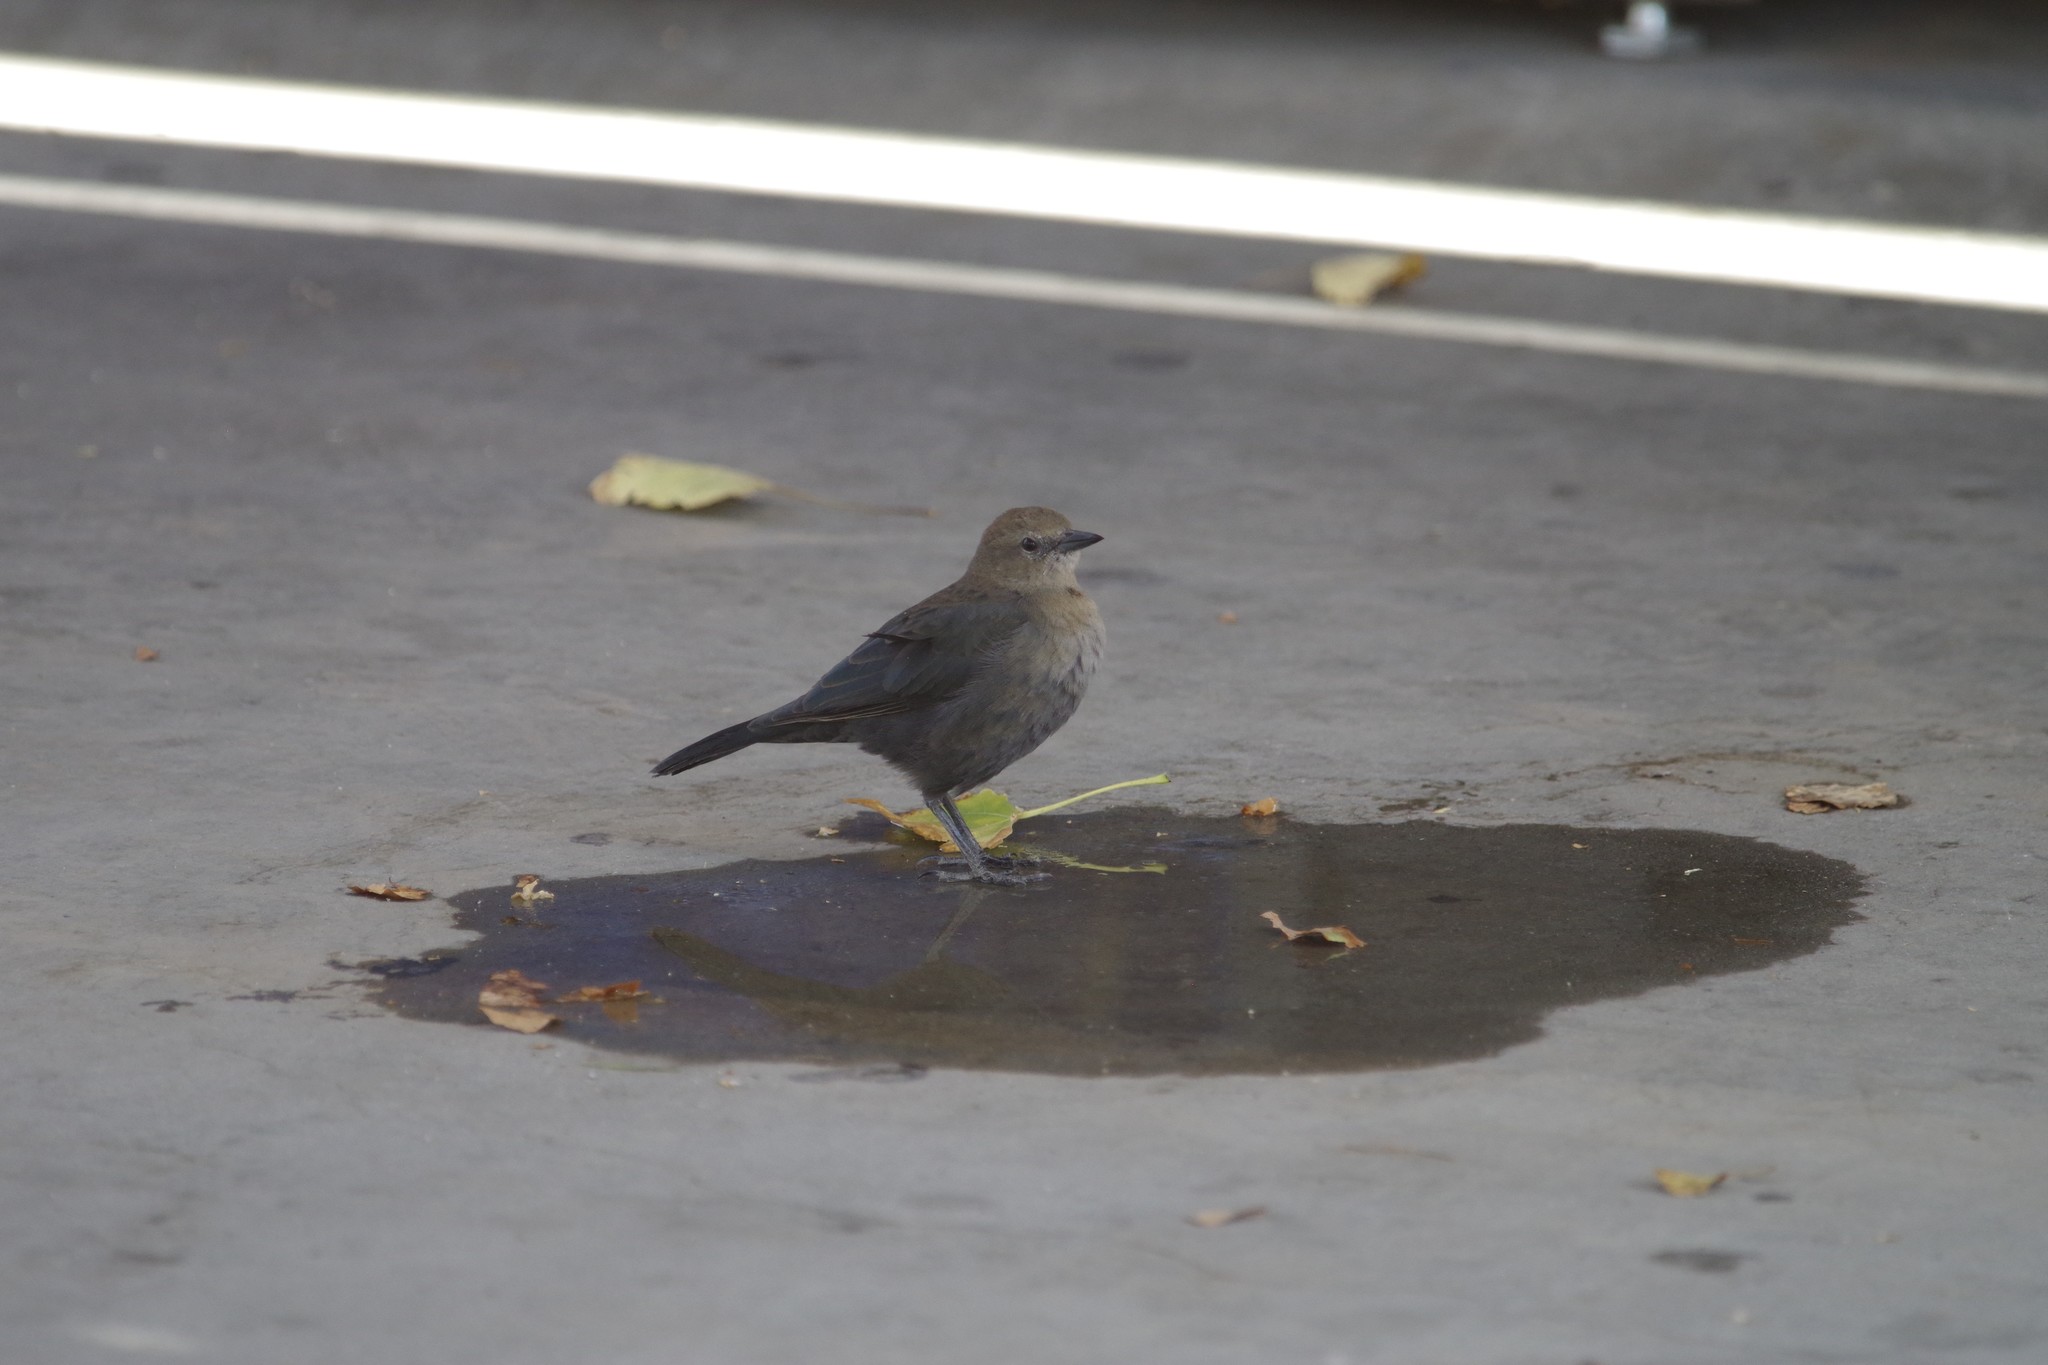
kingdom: Animalia
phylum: Chordata
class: Aves
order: Passeriformes
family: Icteridae
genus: Euphagus
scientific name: Euphagus cyanocephalus
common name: Brewer's blackbird
